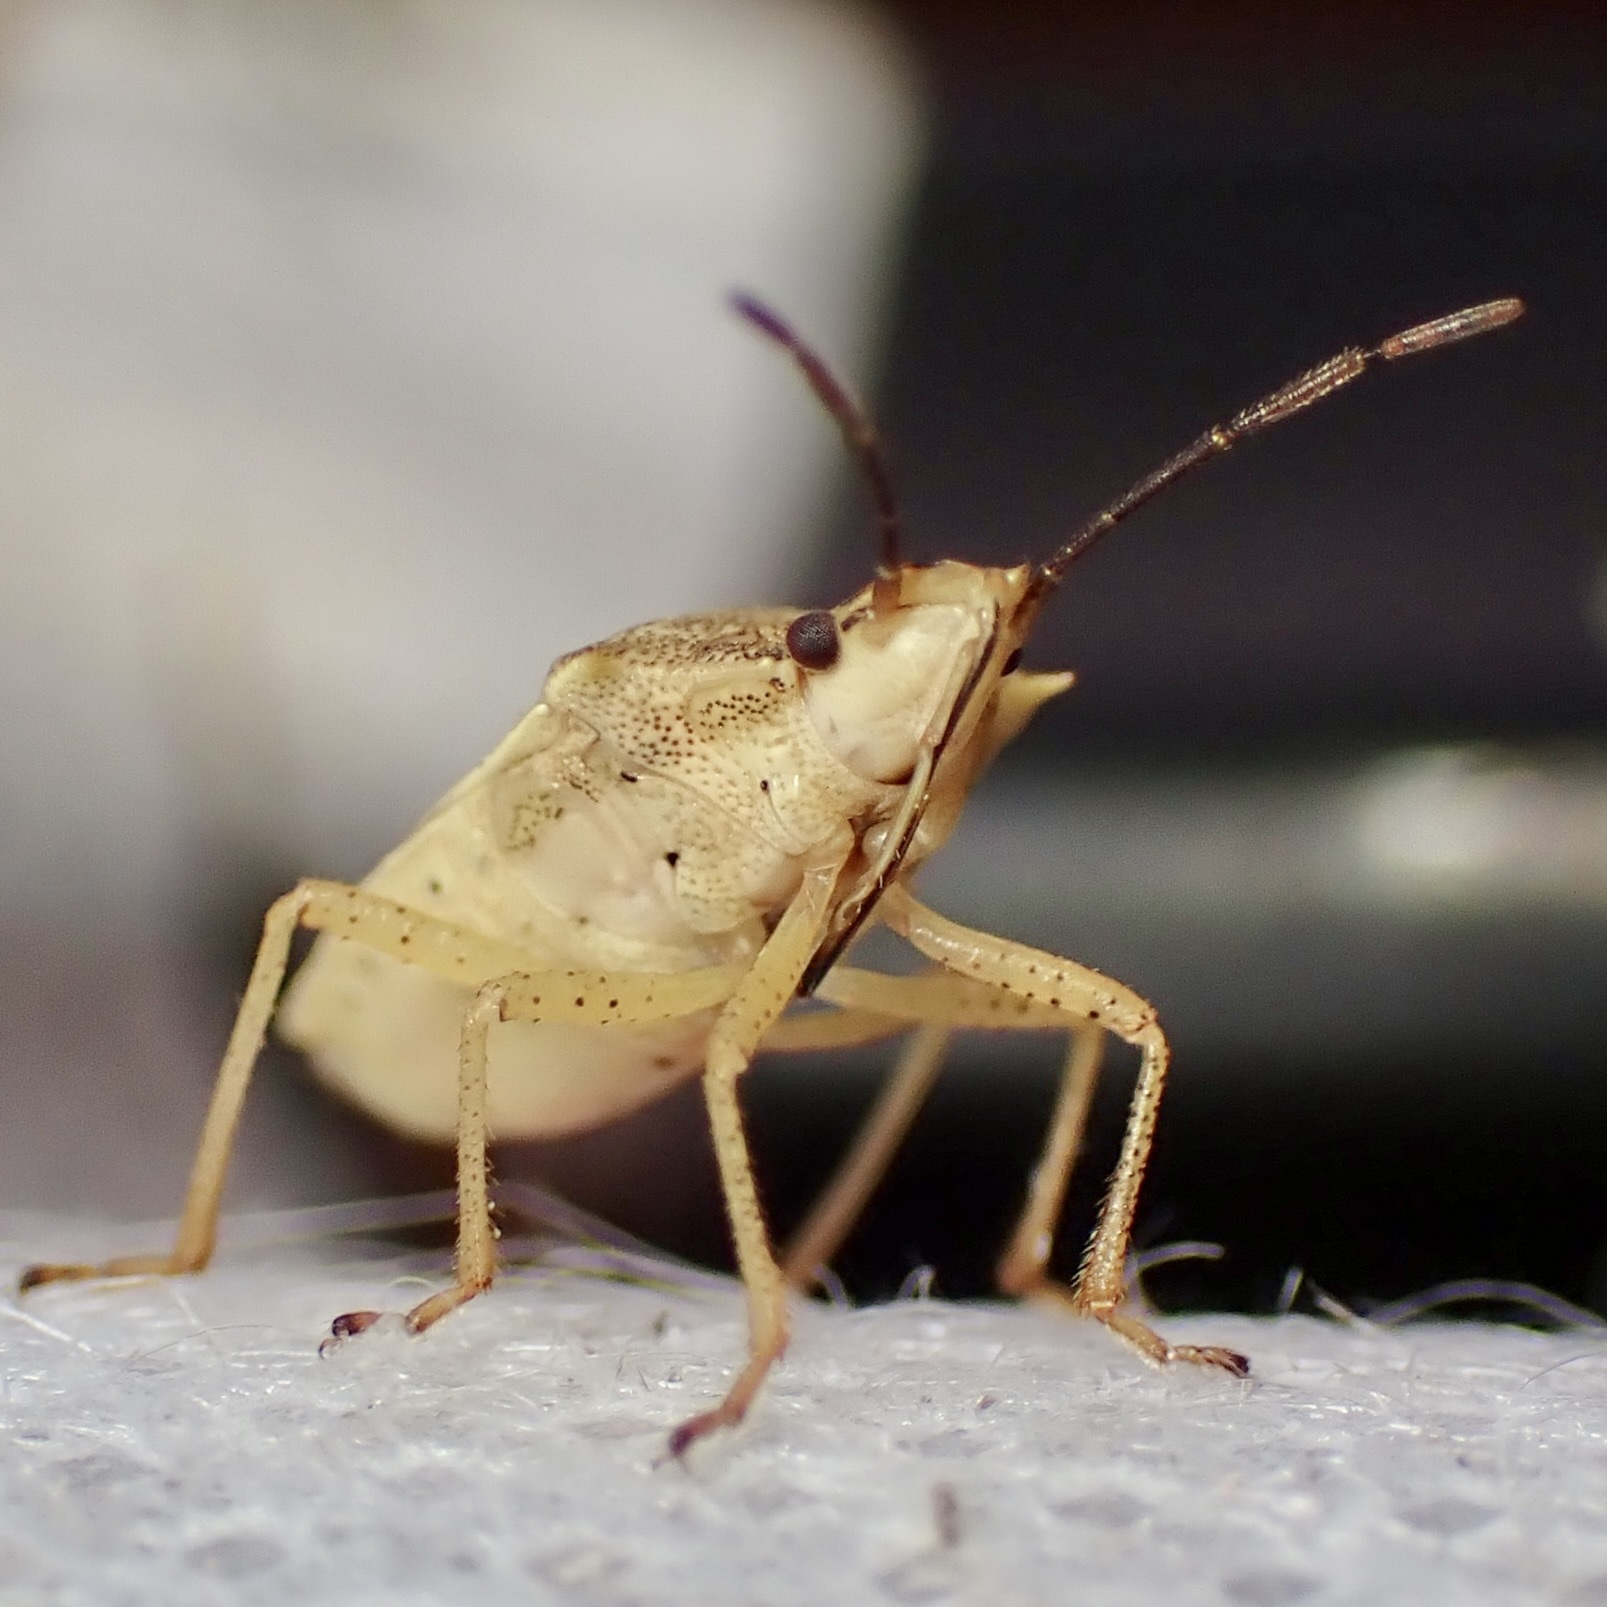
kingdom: Animalia
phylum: Arthropoda
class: Insecta
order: Hemiptera
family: Pentatomidae
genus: Oebalus
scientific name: Oebalus mexicanus
